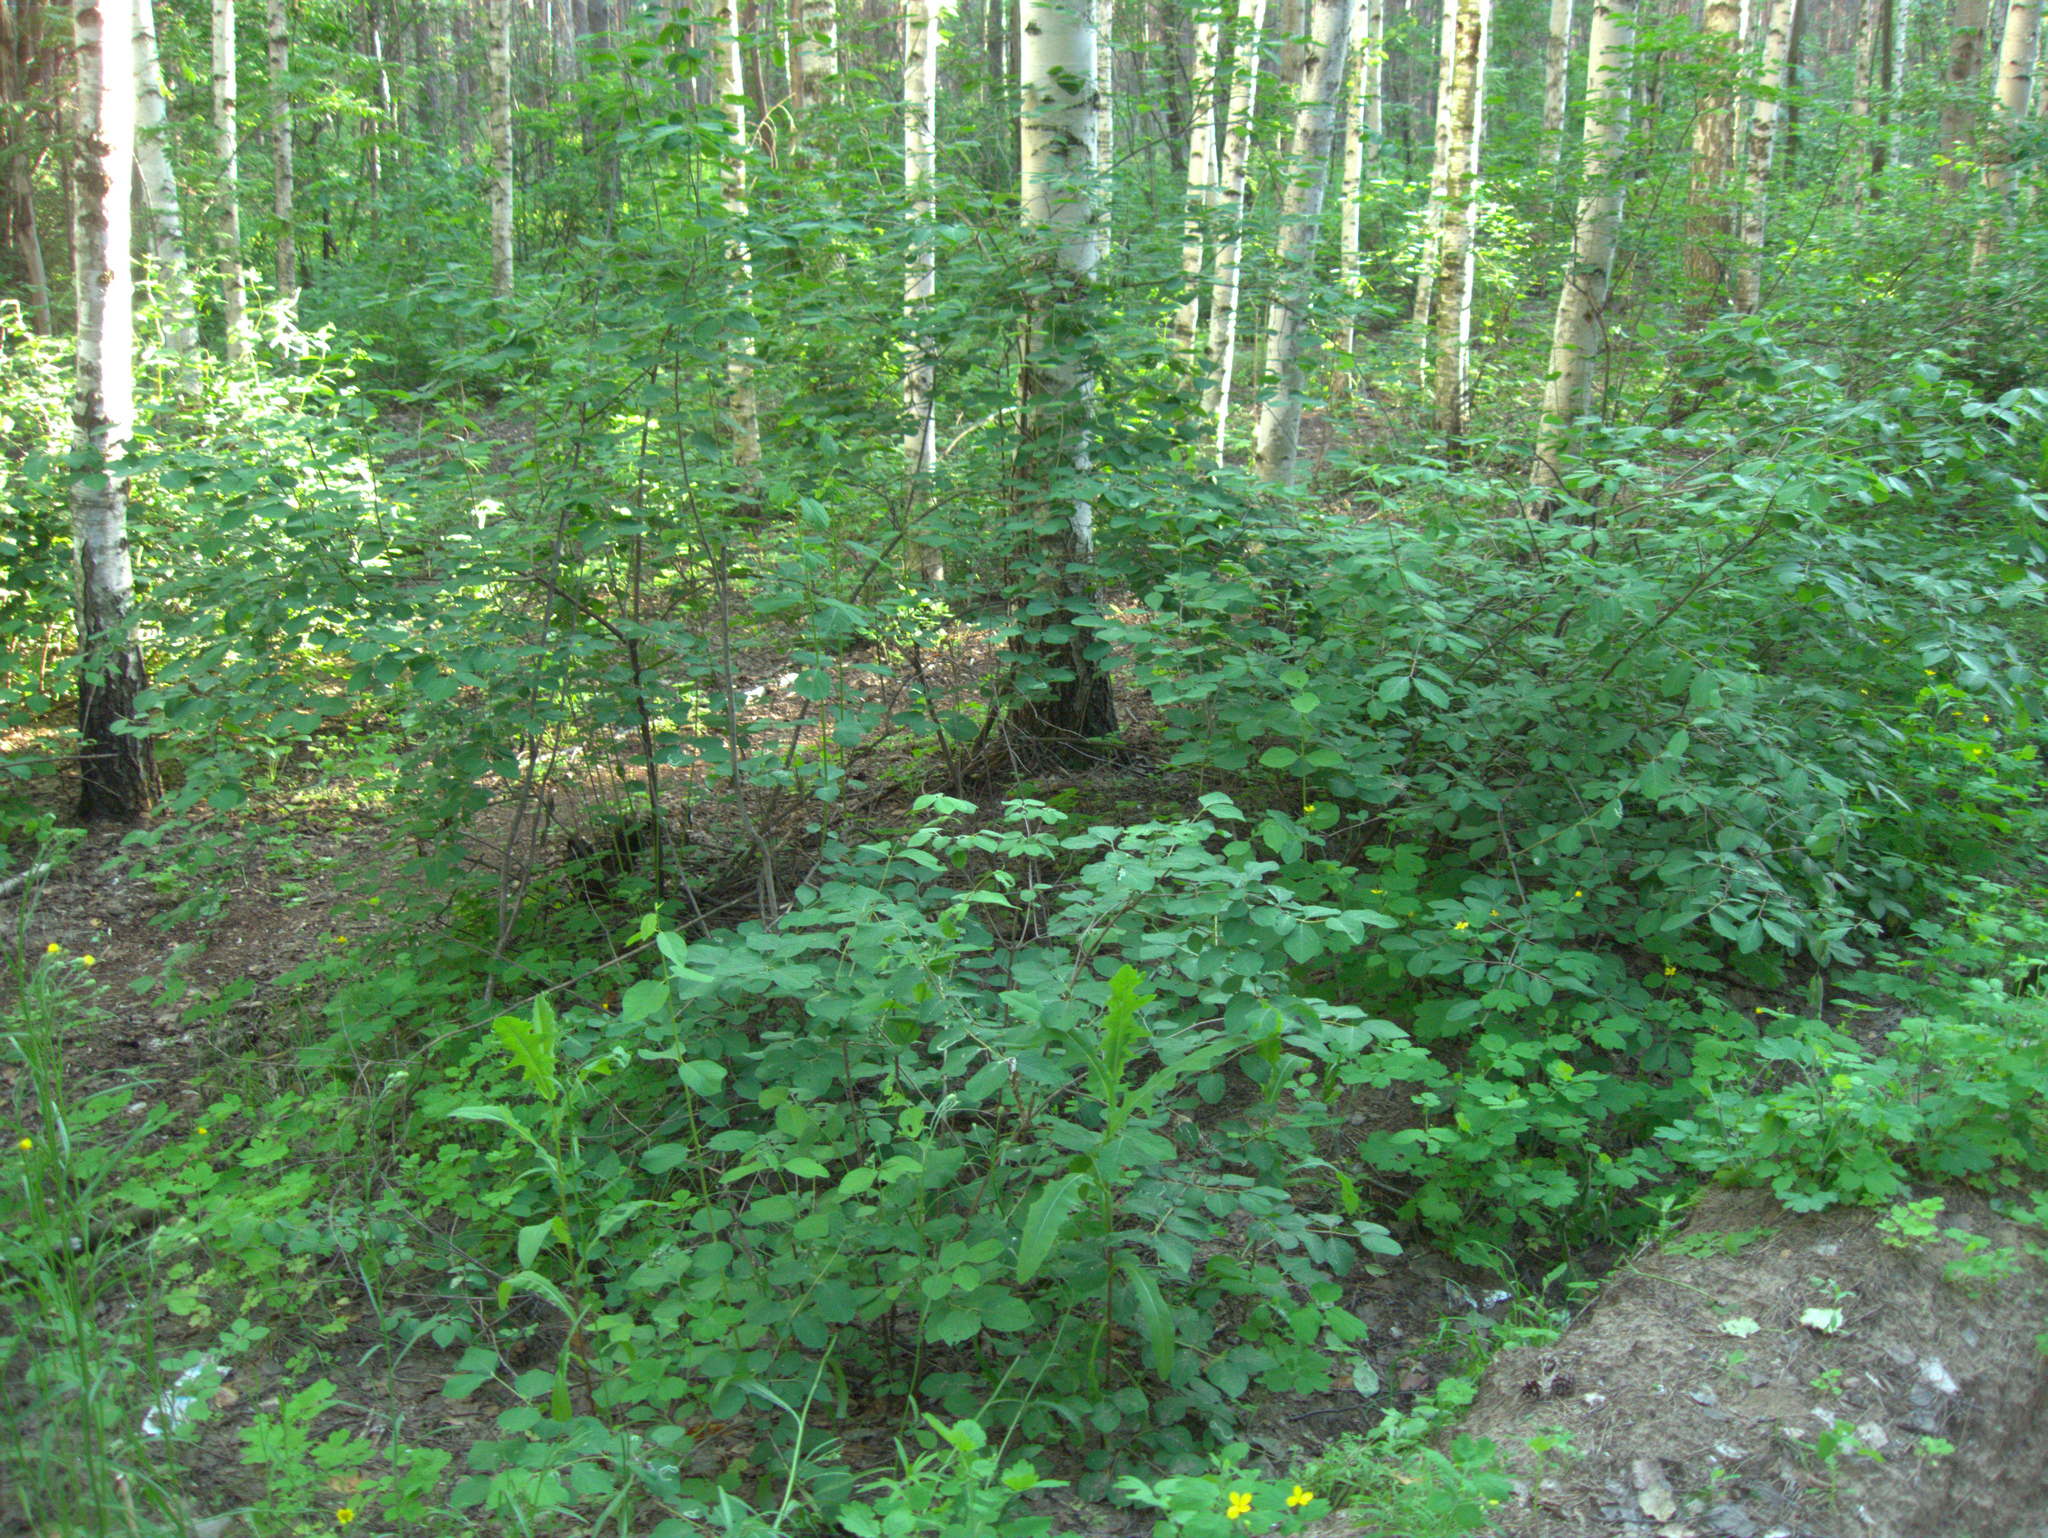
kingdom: Plantae
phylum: Tracheophyta
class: Magnoliopsida
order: Ranunculales
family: Papaveraceae
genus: Chelidonium
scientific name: Chelidonium majus
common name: Greater celandine
